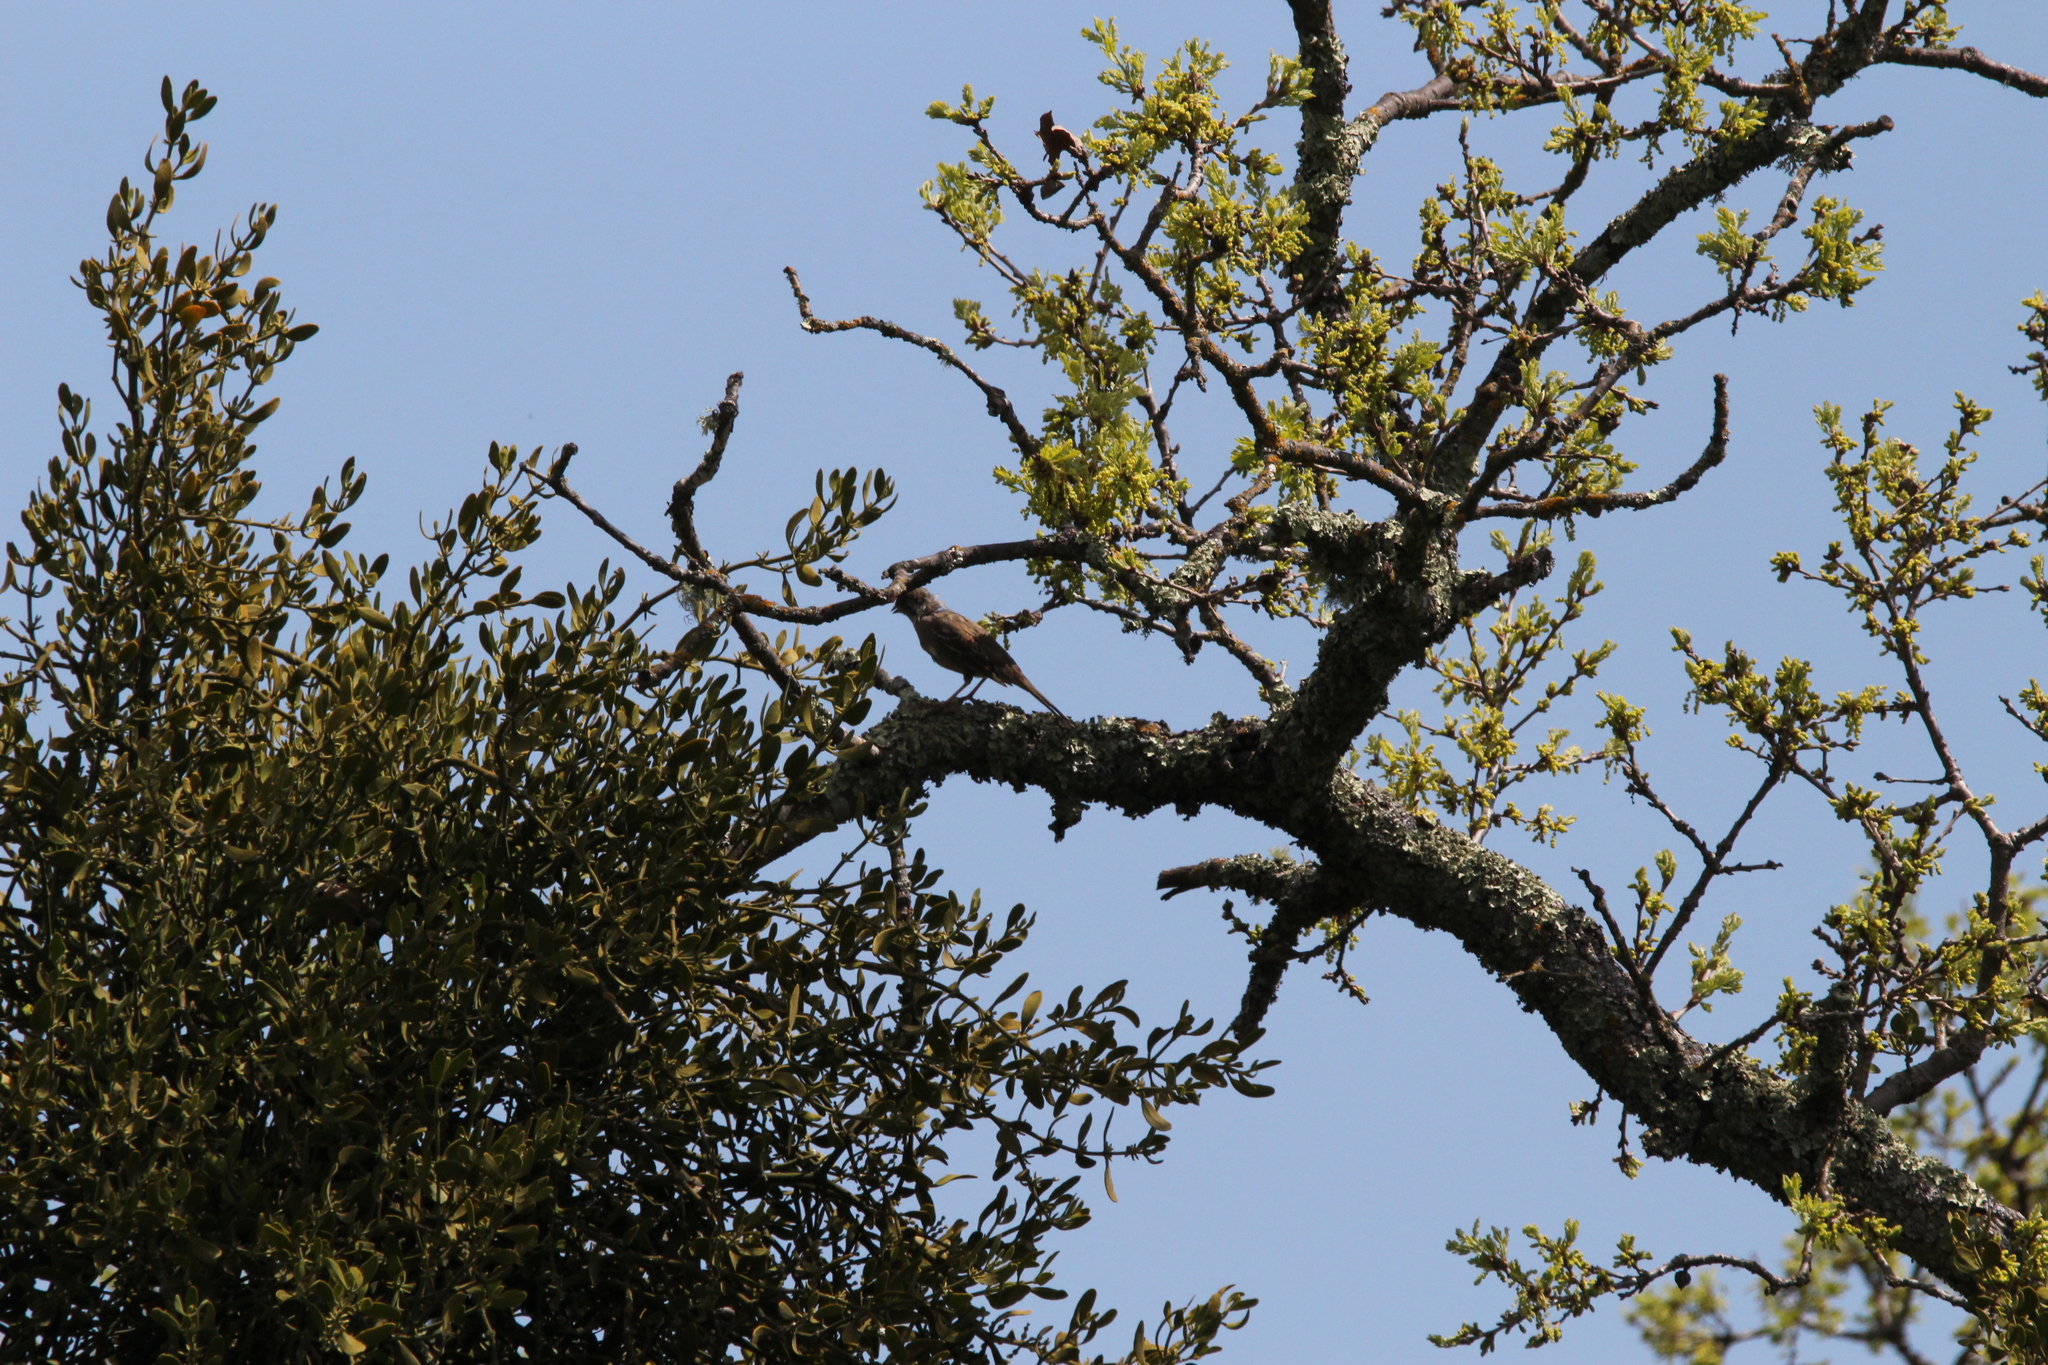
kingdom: Animalia
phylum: Chordata
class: Aves
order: Passeriformes
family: Passerellidae
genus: Melozone
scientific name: Melozone crissalis
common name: California towhee
